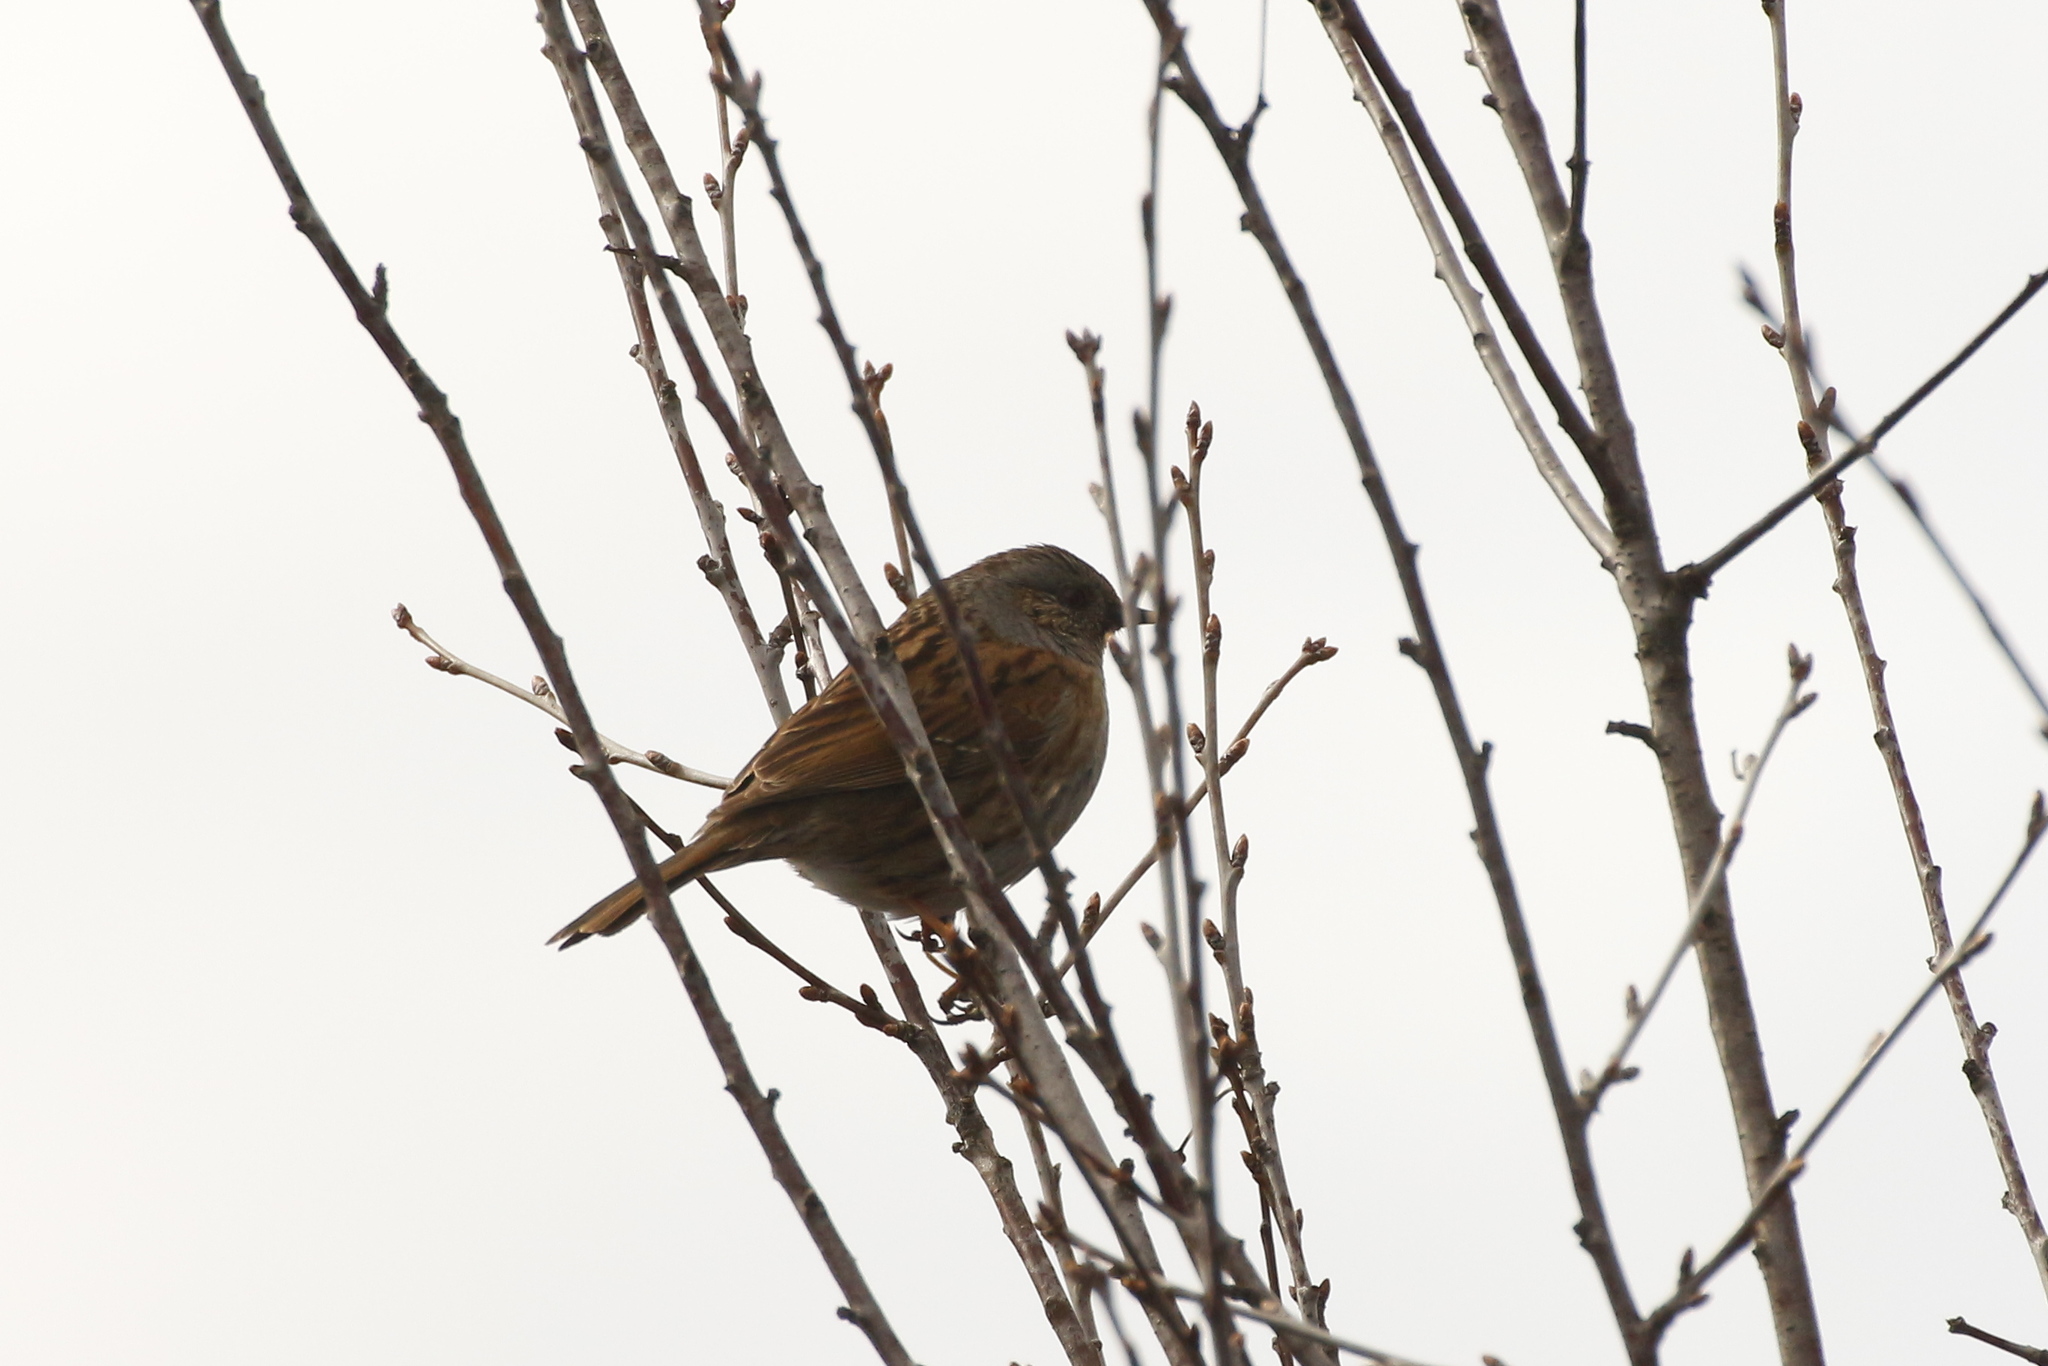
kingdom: Animalia
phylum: Chordata
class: Aves
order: Passeriformes
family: Prunellidae
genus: Prunella
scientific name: Prunella modularis
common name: Dunnock
